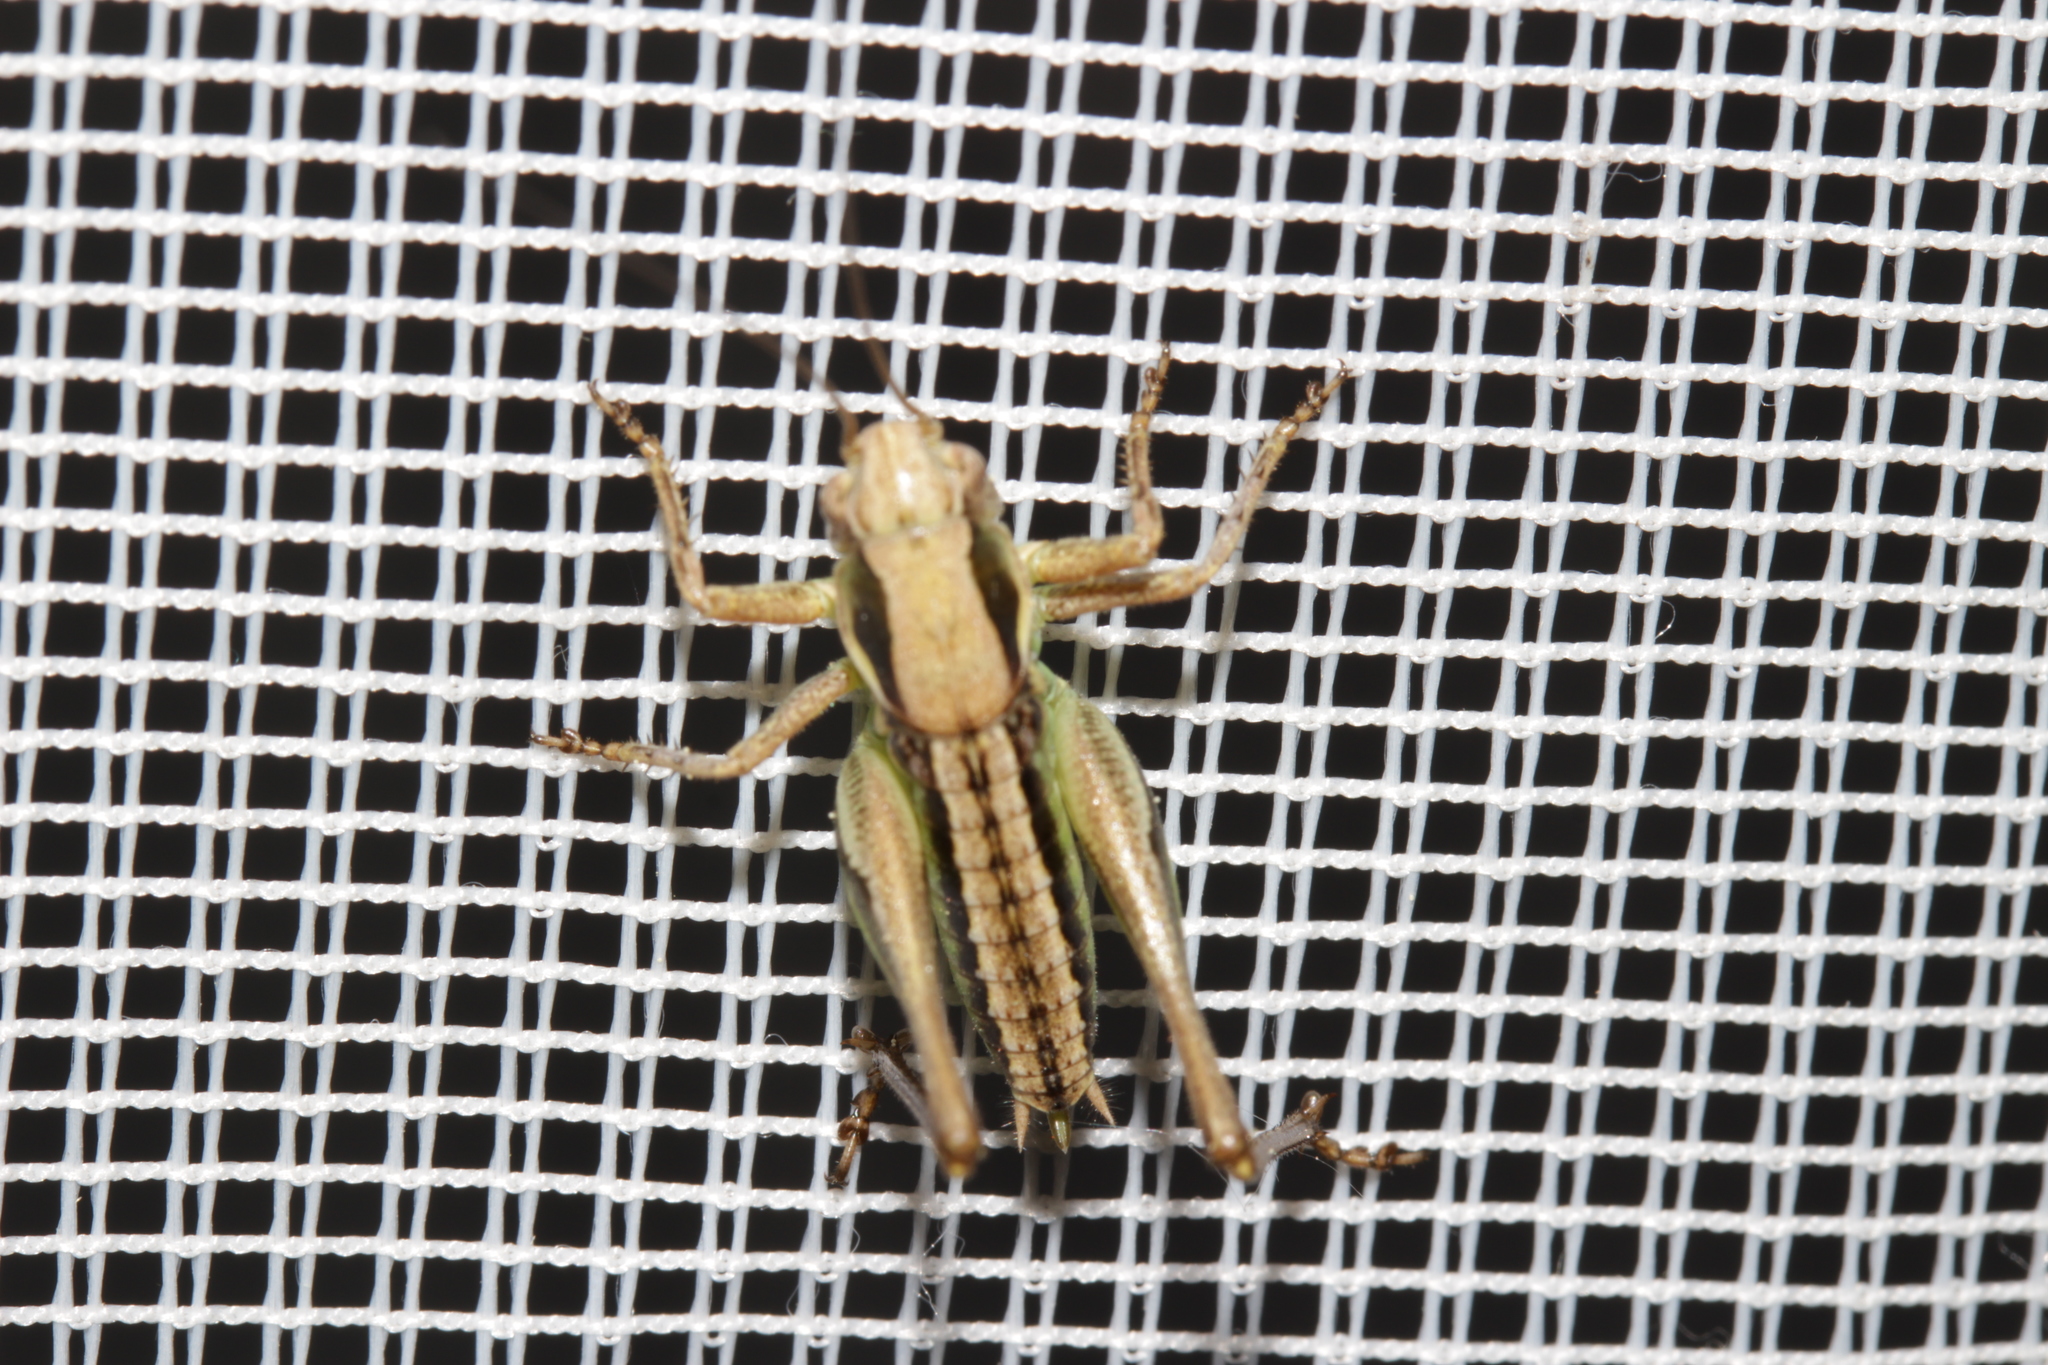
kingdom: Animalia
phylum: Arthropoda
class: Insecta
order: Orthoptera
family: Tettigoniidae
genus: Platycleis
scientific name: Platycleis grisea
